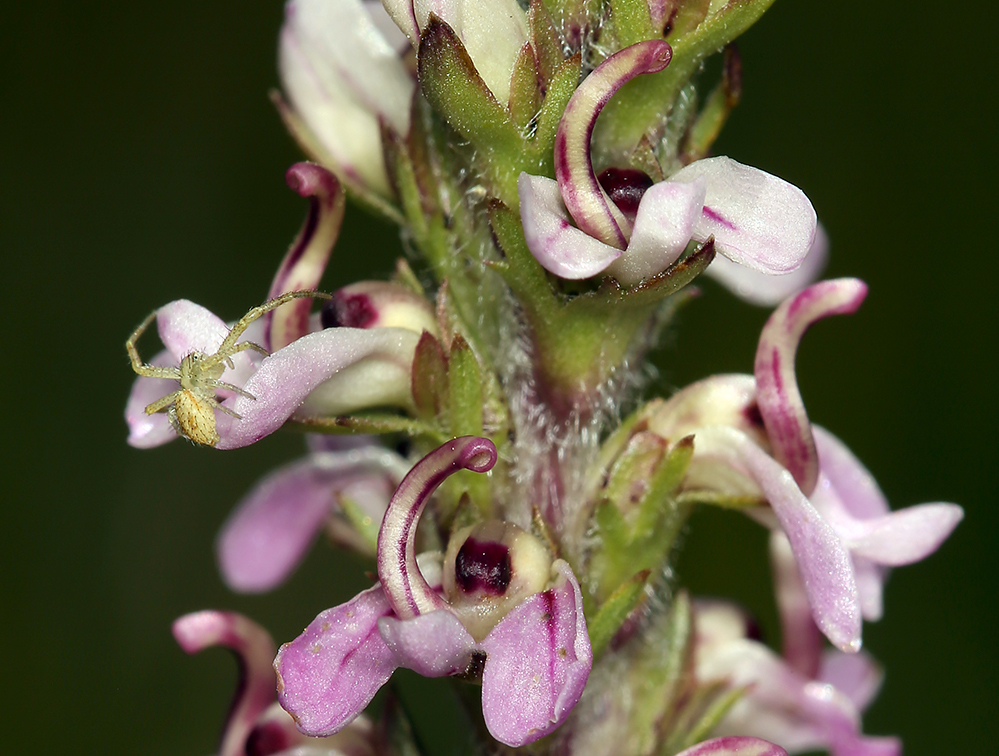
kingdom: Plantae
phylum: Tracheophyta
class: Magnoliopsida
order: Lamiales
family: Orobanchaceae
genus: Pedicularis
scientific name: Pedicularis attollens
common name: Slender pedicularis
